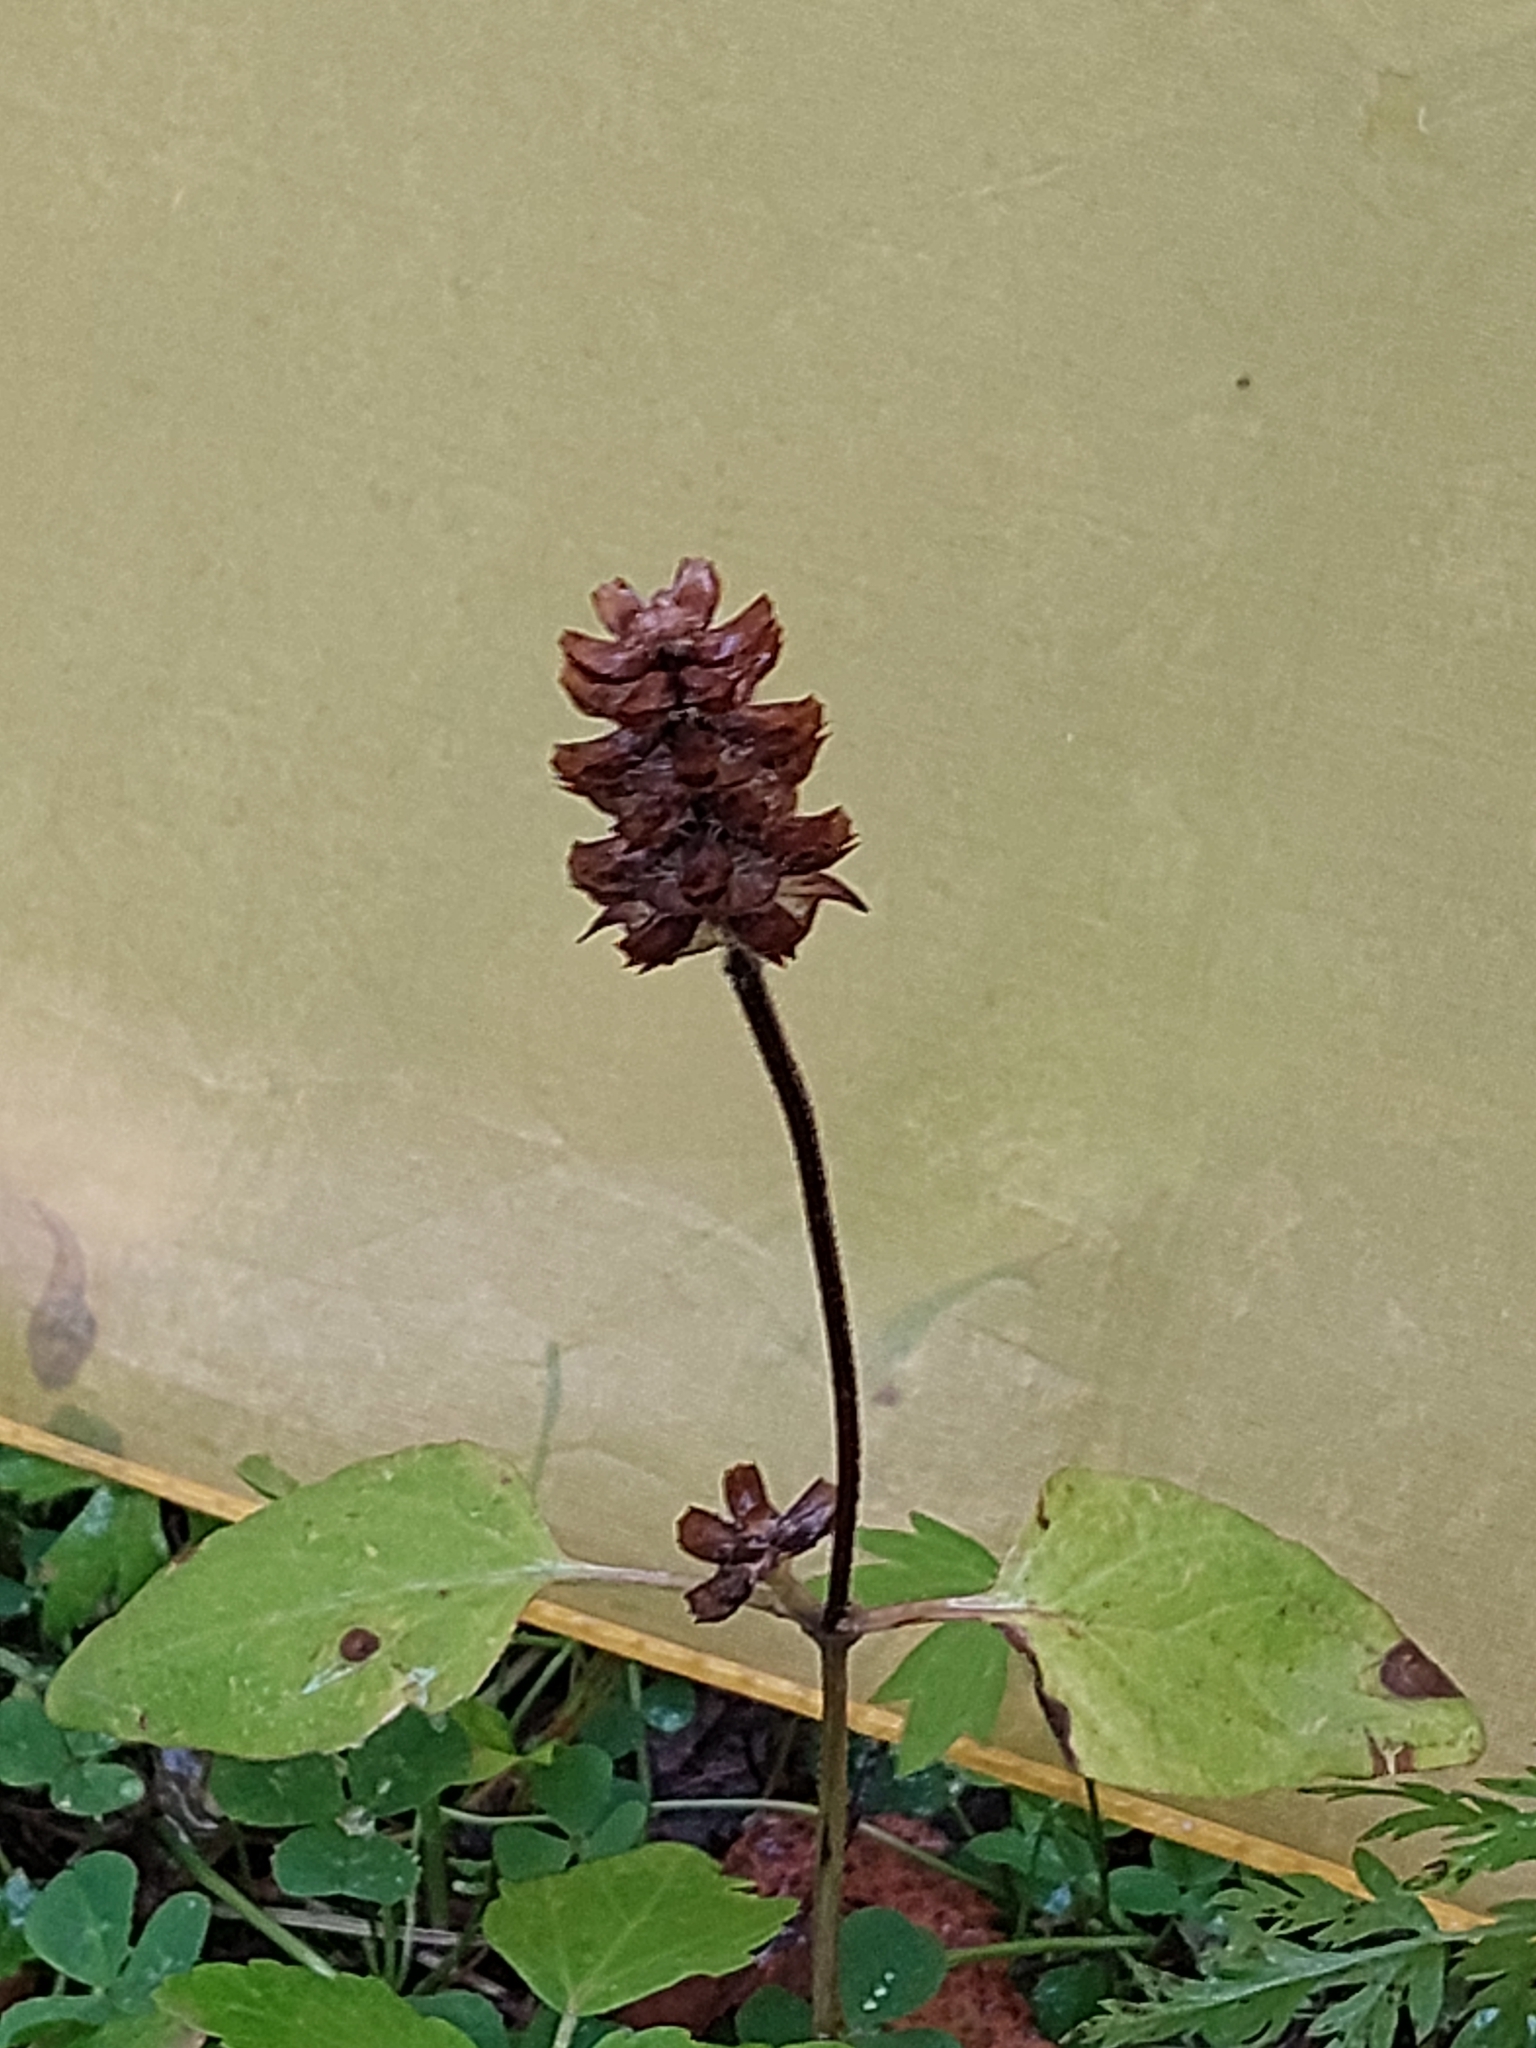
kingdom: Plantae
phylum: Tracheophyta
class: Magnoliopsida
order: Lamiales
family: Lamiaceae
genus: Prunella
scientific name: Prunella vulgaris
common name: Heal-all
